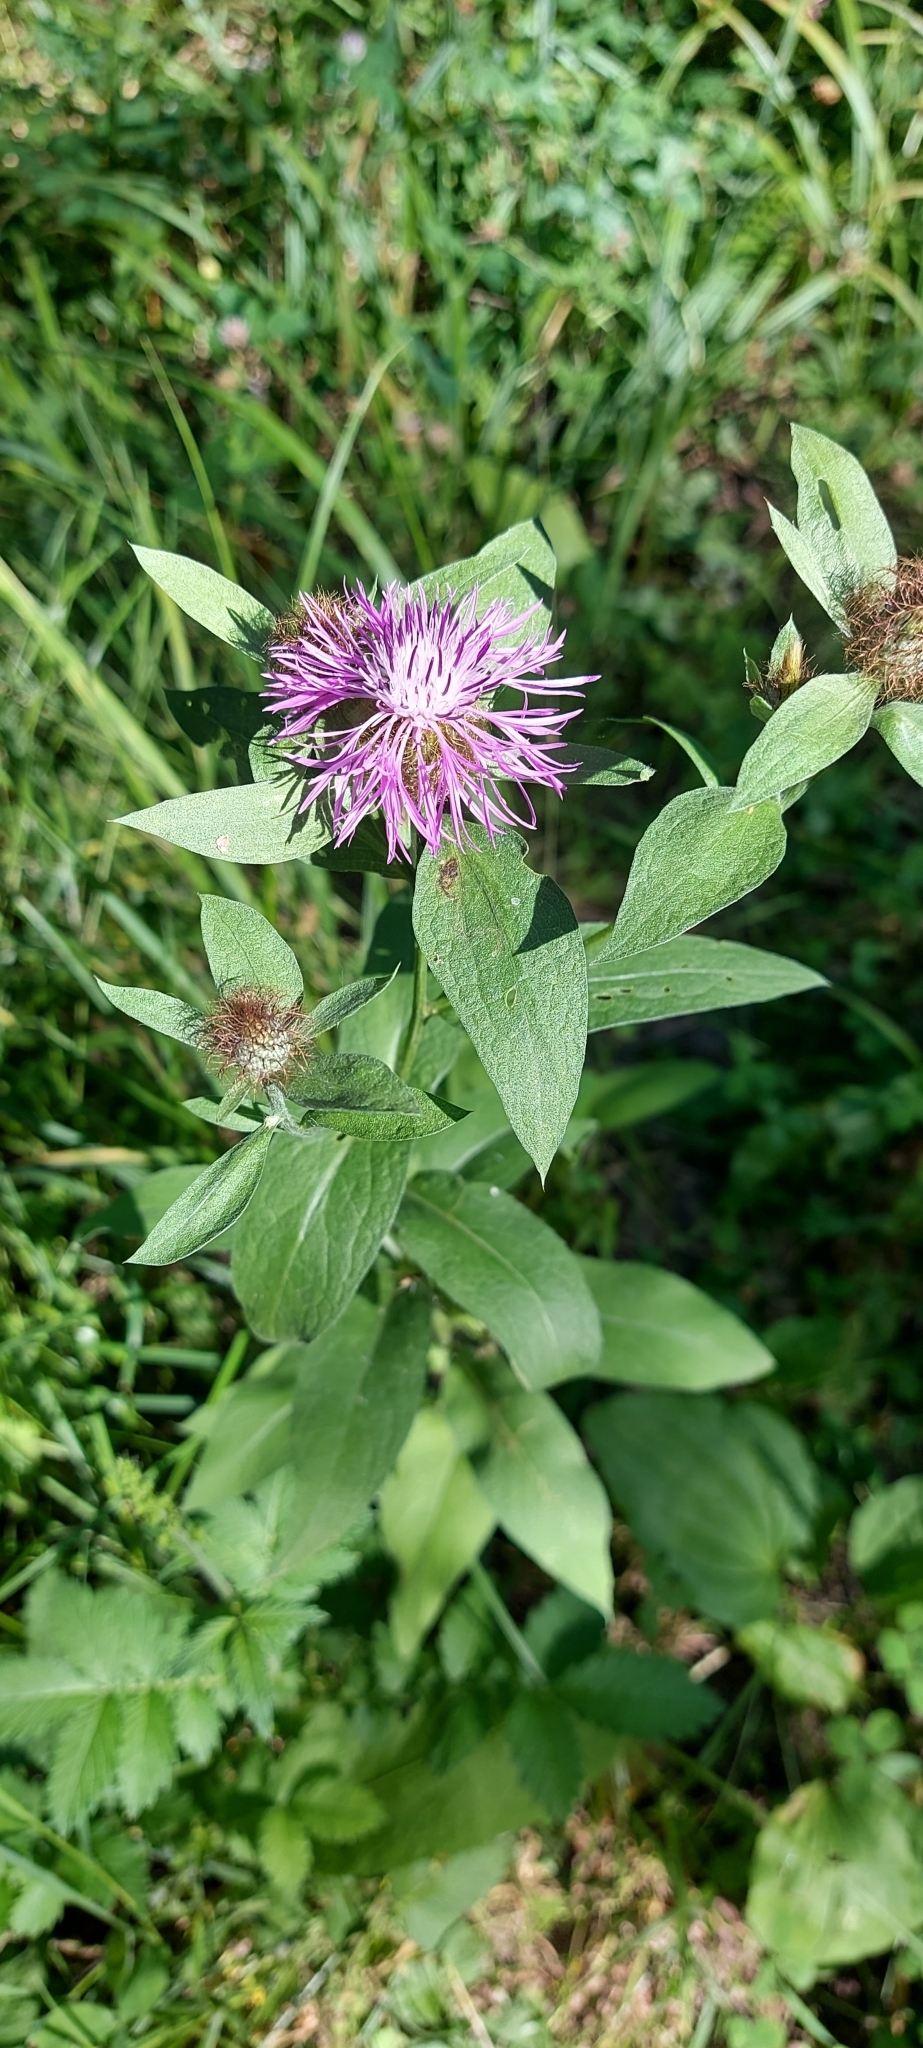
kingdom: Plantae
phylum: Tracheophyta
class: Magnoliopsida
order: Asterales
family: Asteraceae
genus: Centaurea
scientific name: Centaurea phrygia
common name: Wig knapweed
